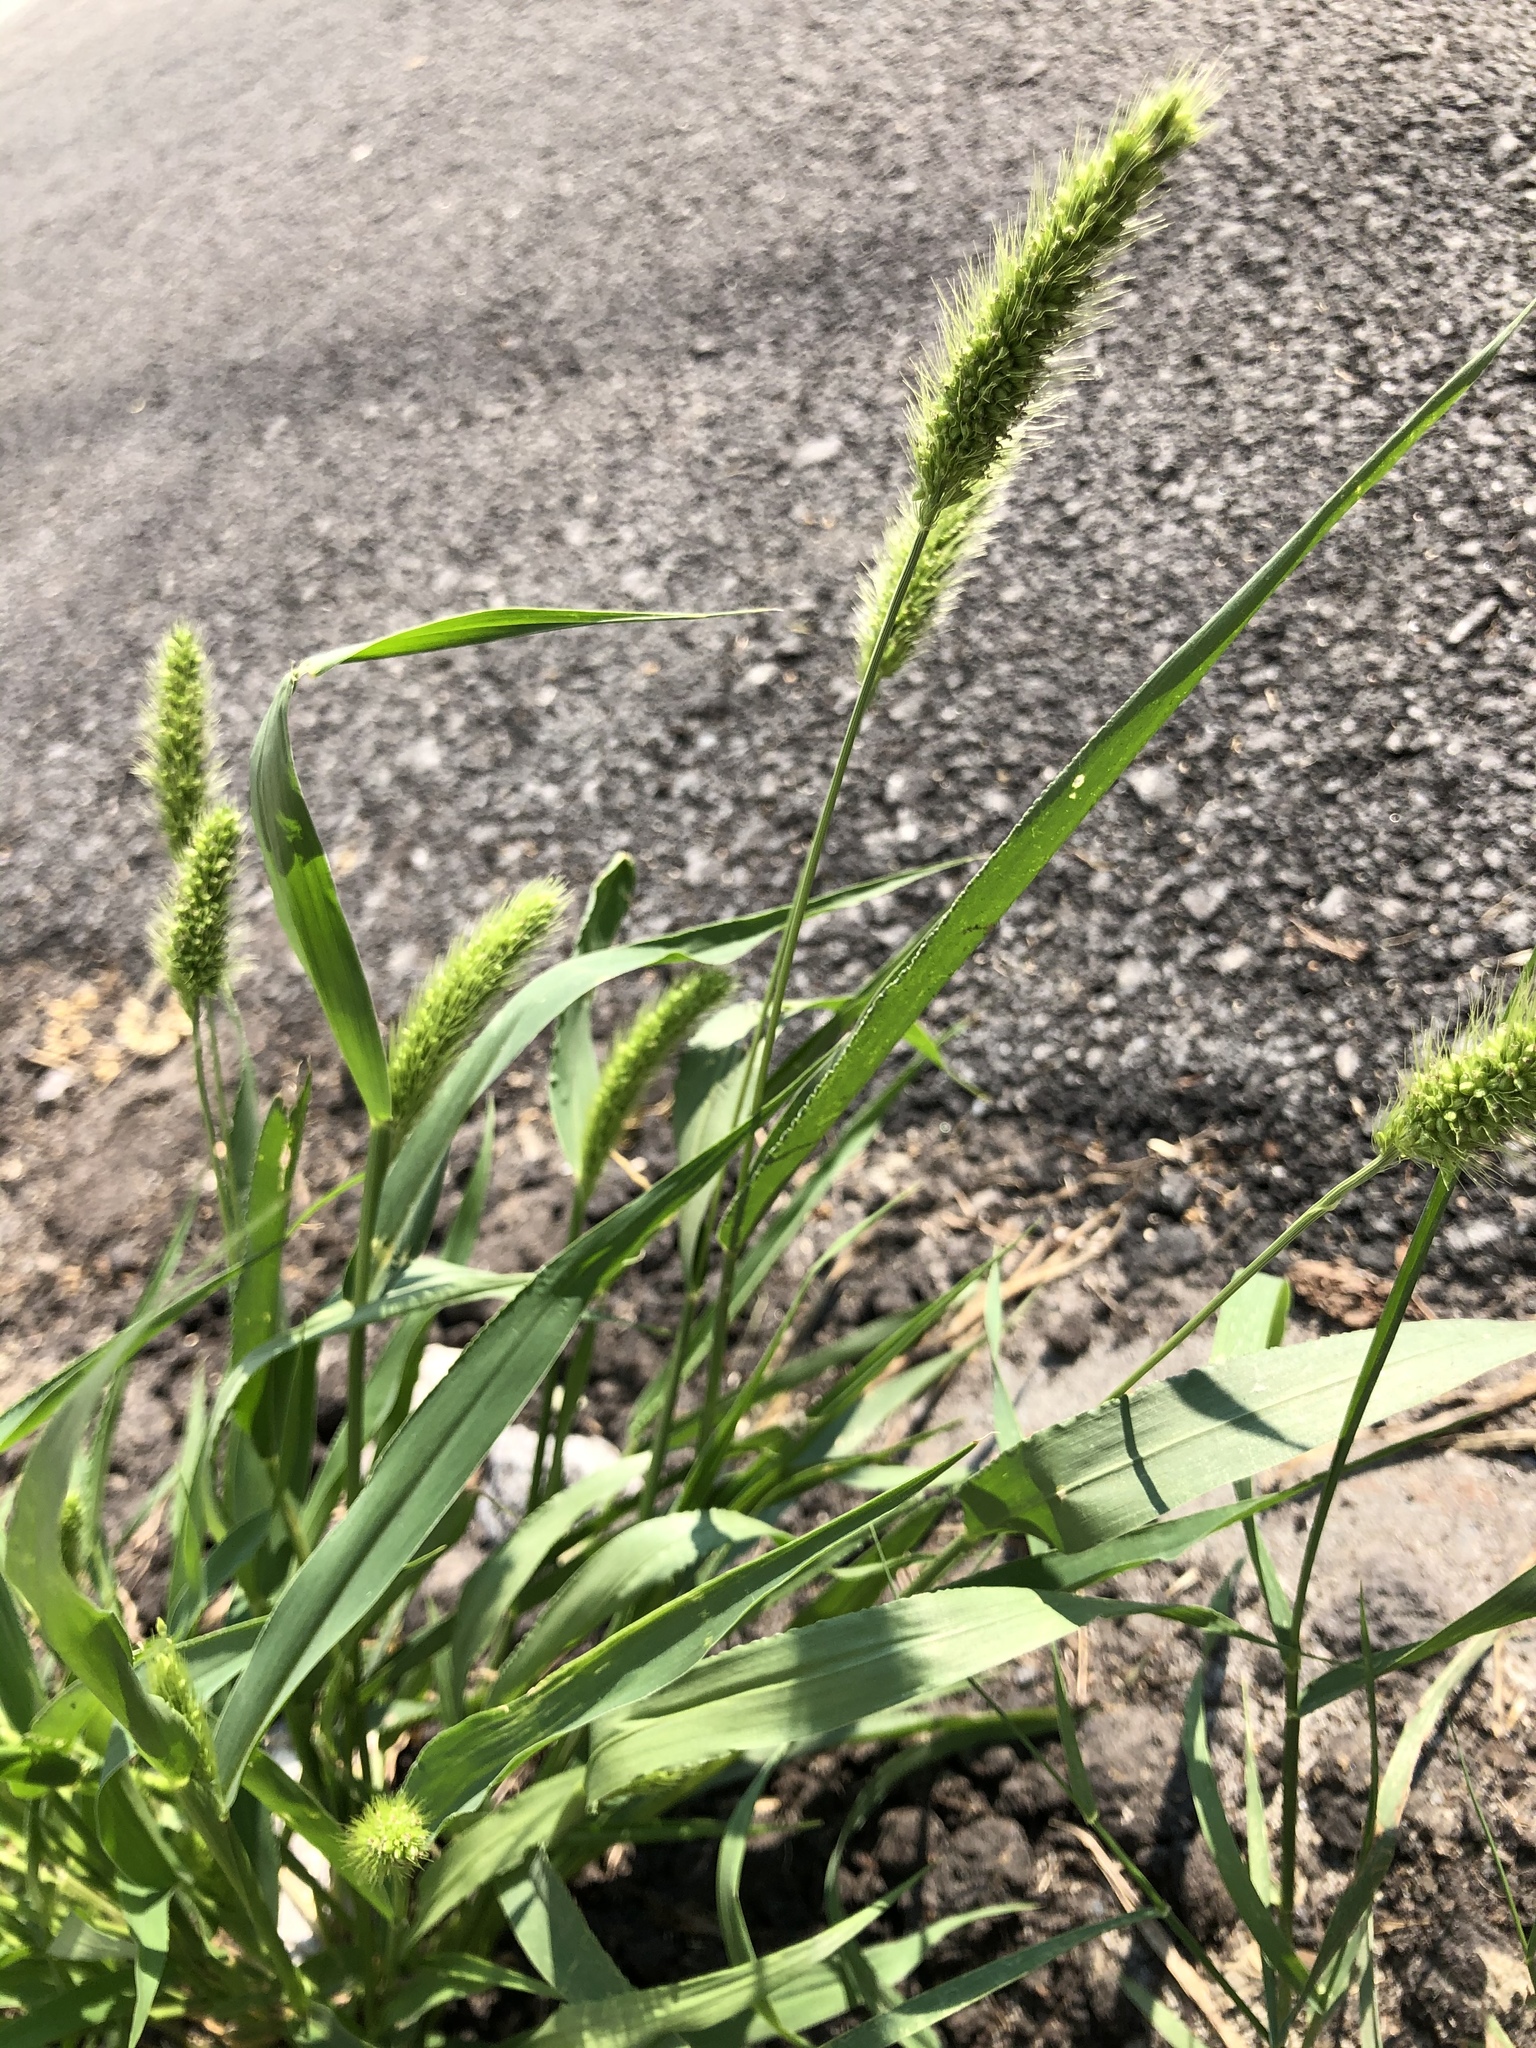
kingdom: Plantae
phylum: Tracheophyta
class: Liliopsida
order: Poales
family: Poaceae
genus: Setaria
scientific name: Setaria viridis
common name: Green bristlegrass
